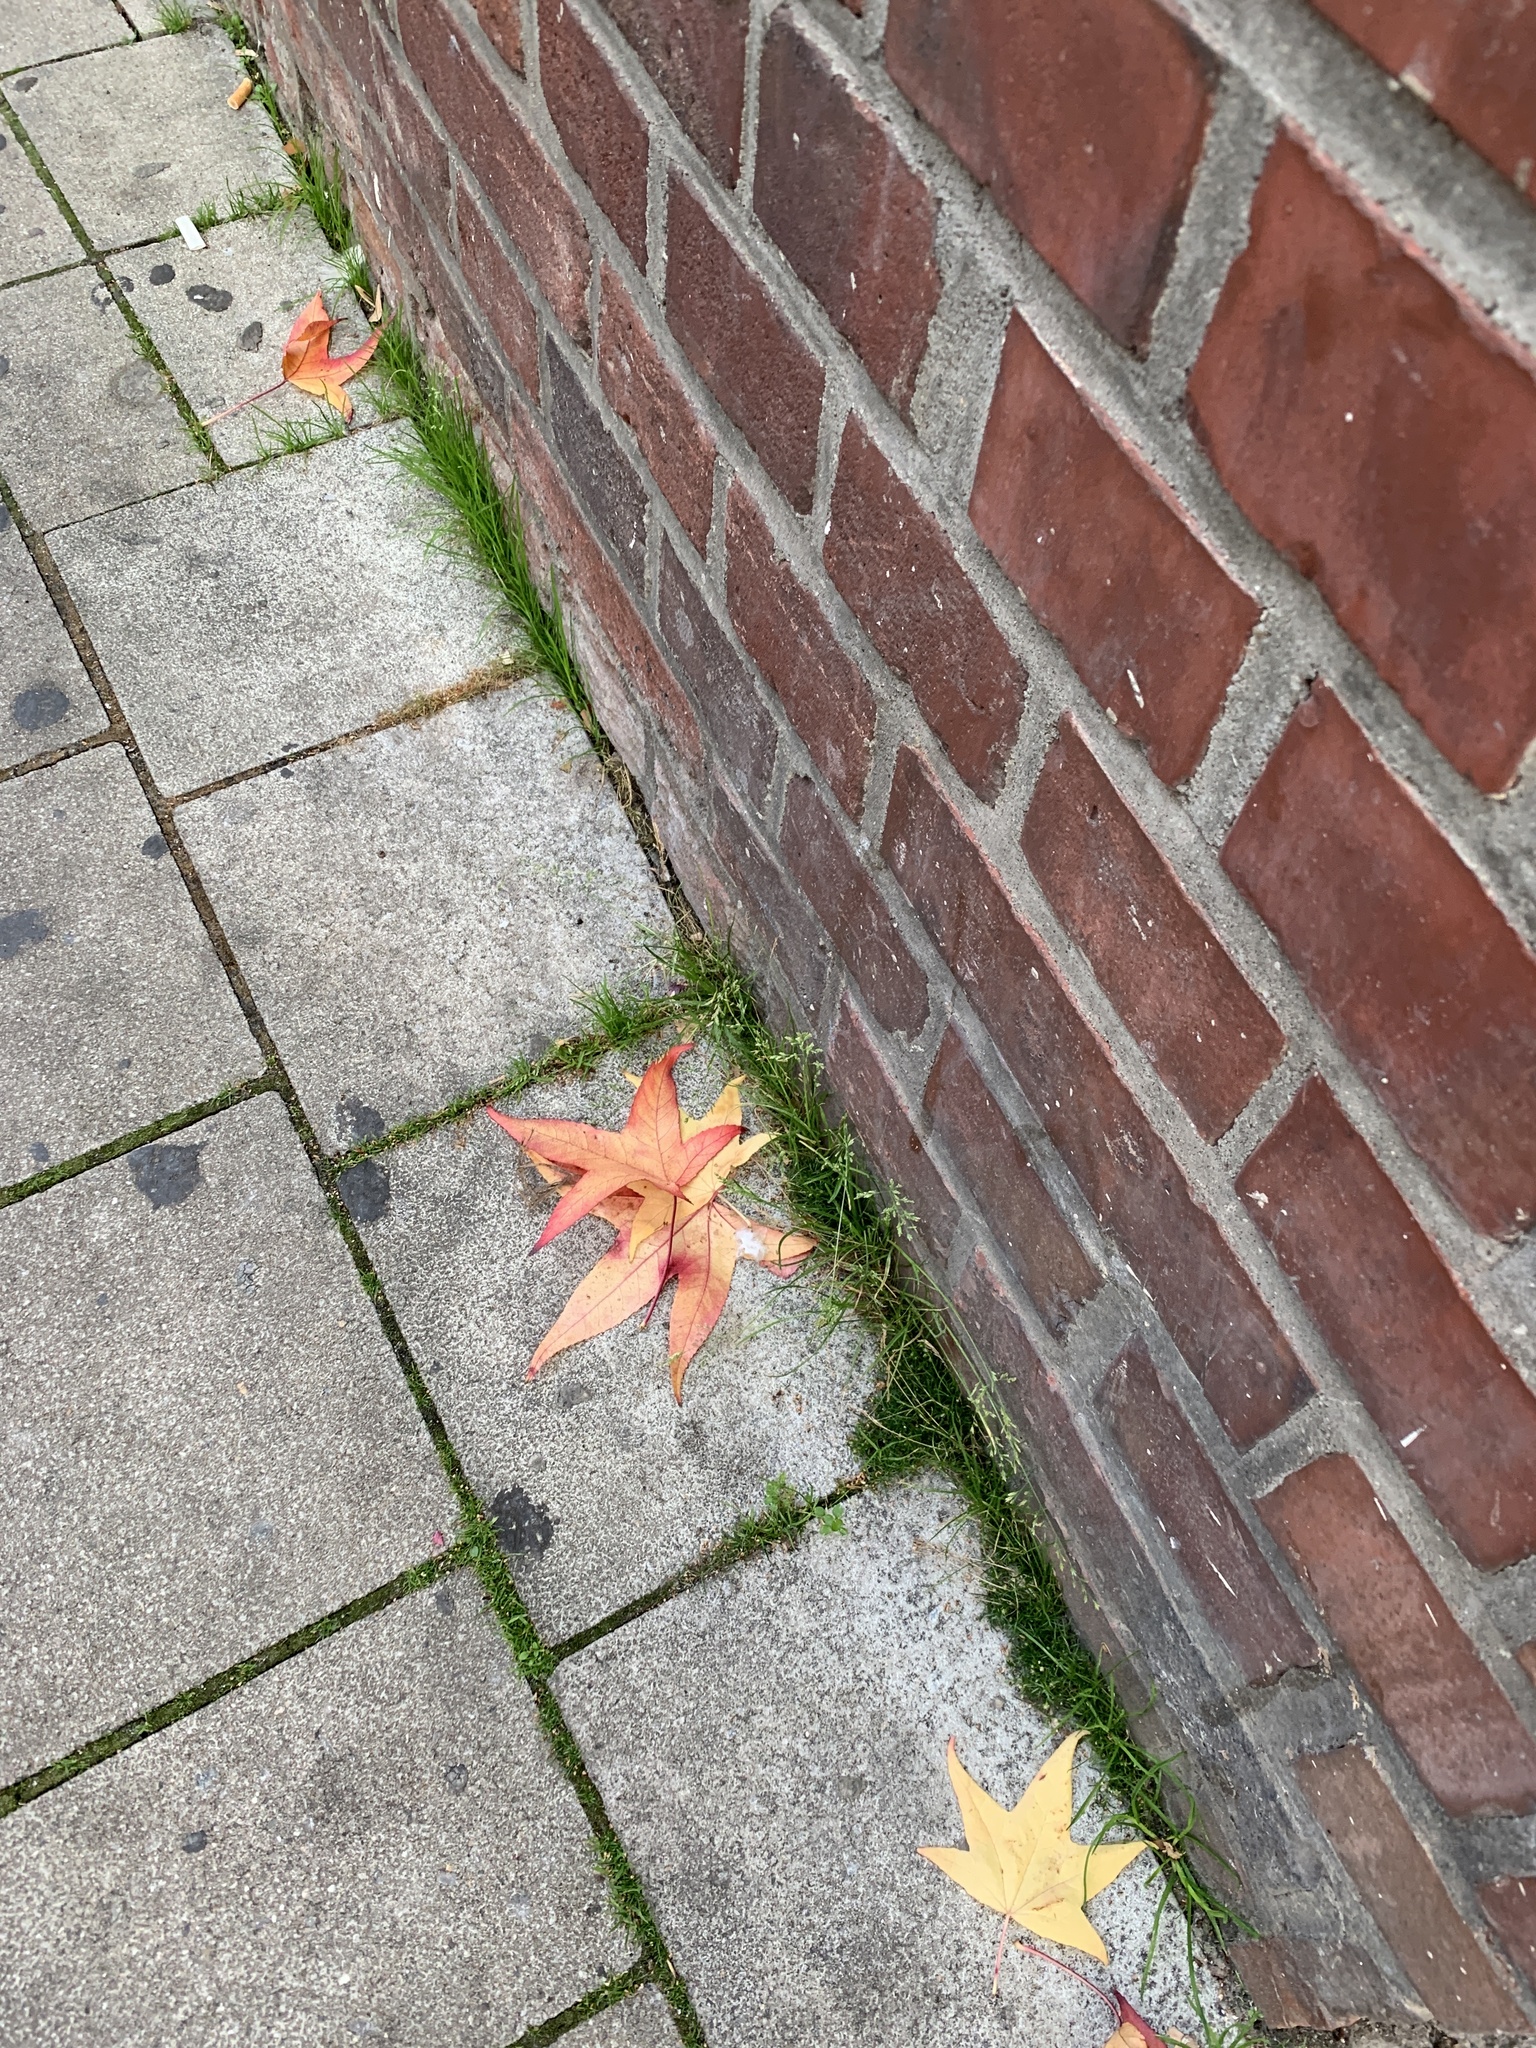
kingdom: Plantae
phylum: Tracheophyta
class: Liliopsida
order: Poales
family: Poaceae
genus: Poa
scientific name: Poa annua
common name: Annual bluegrass
